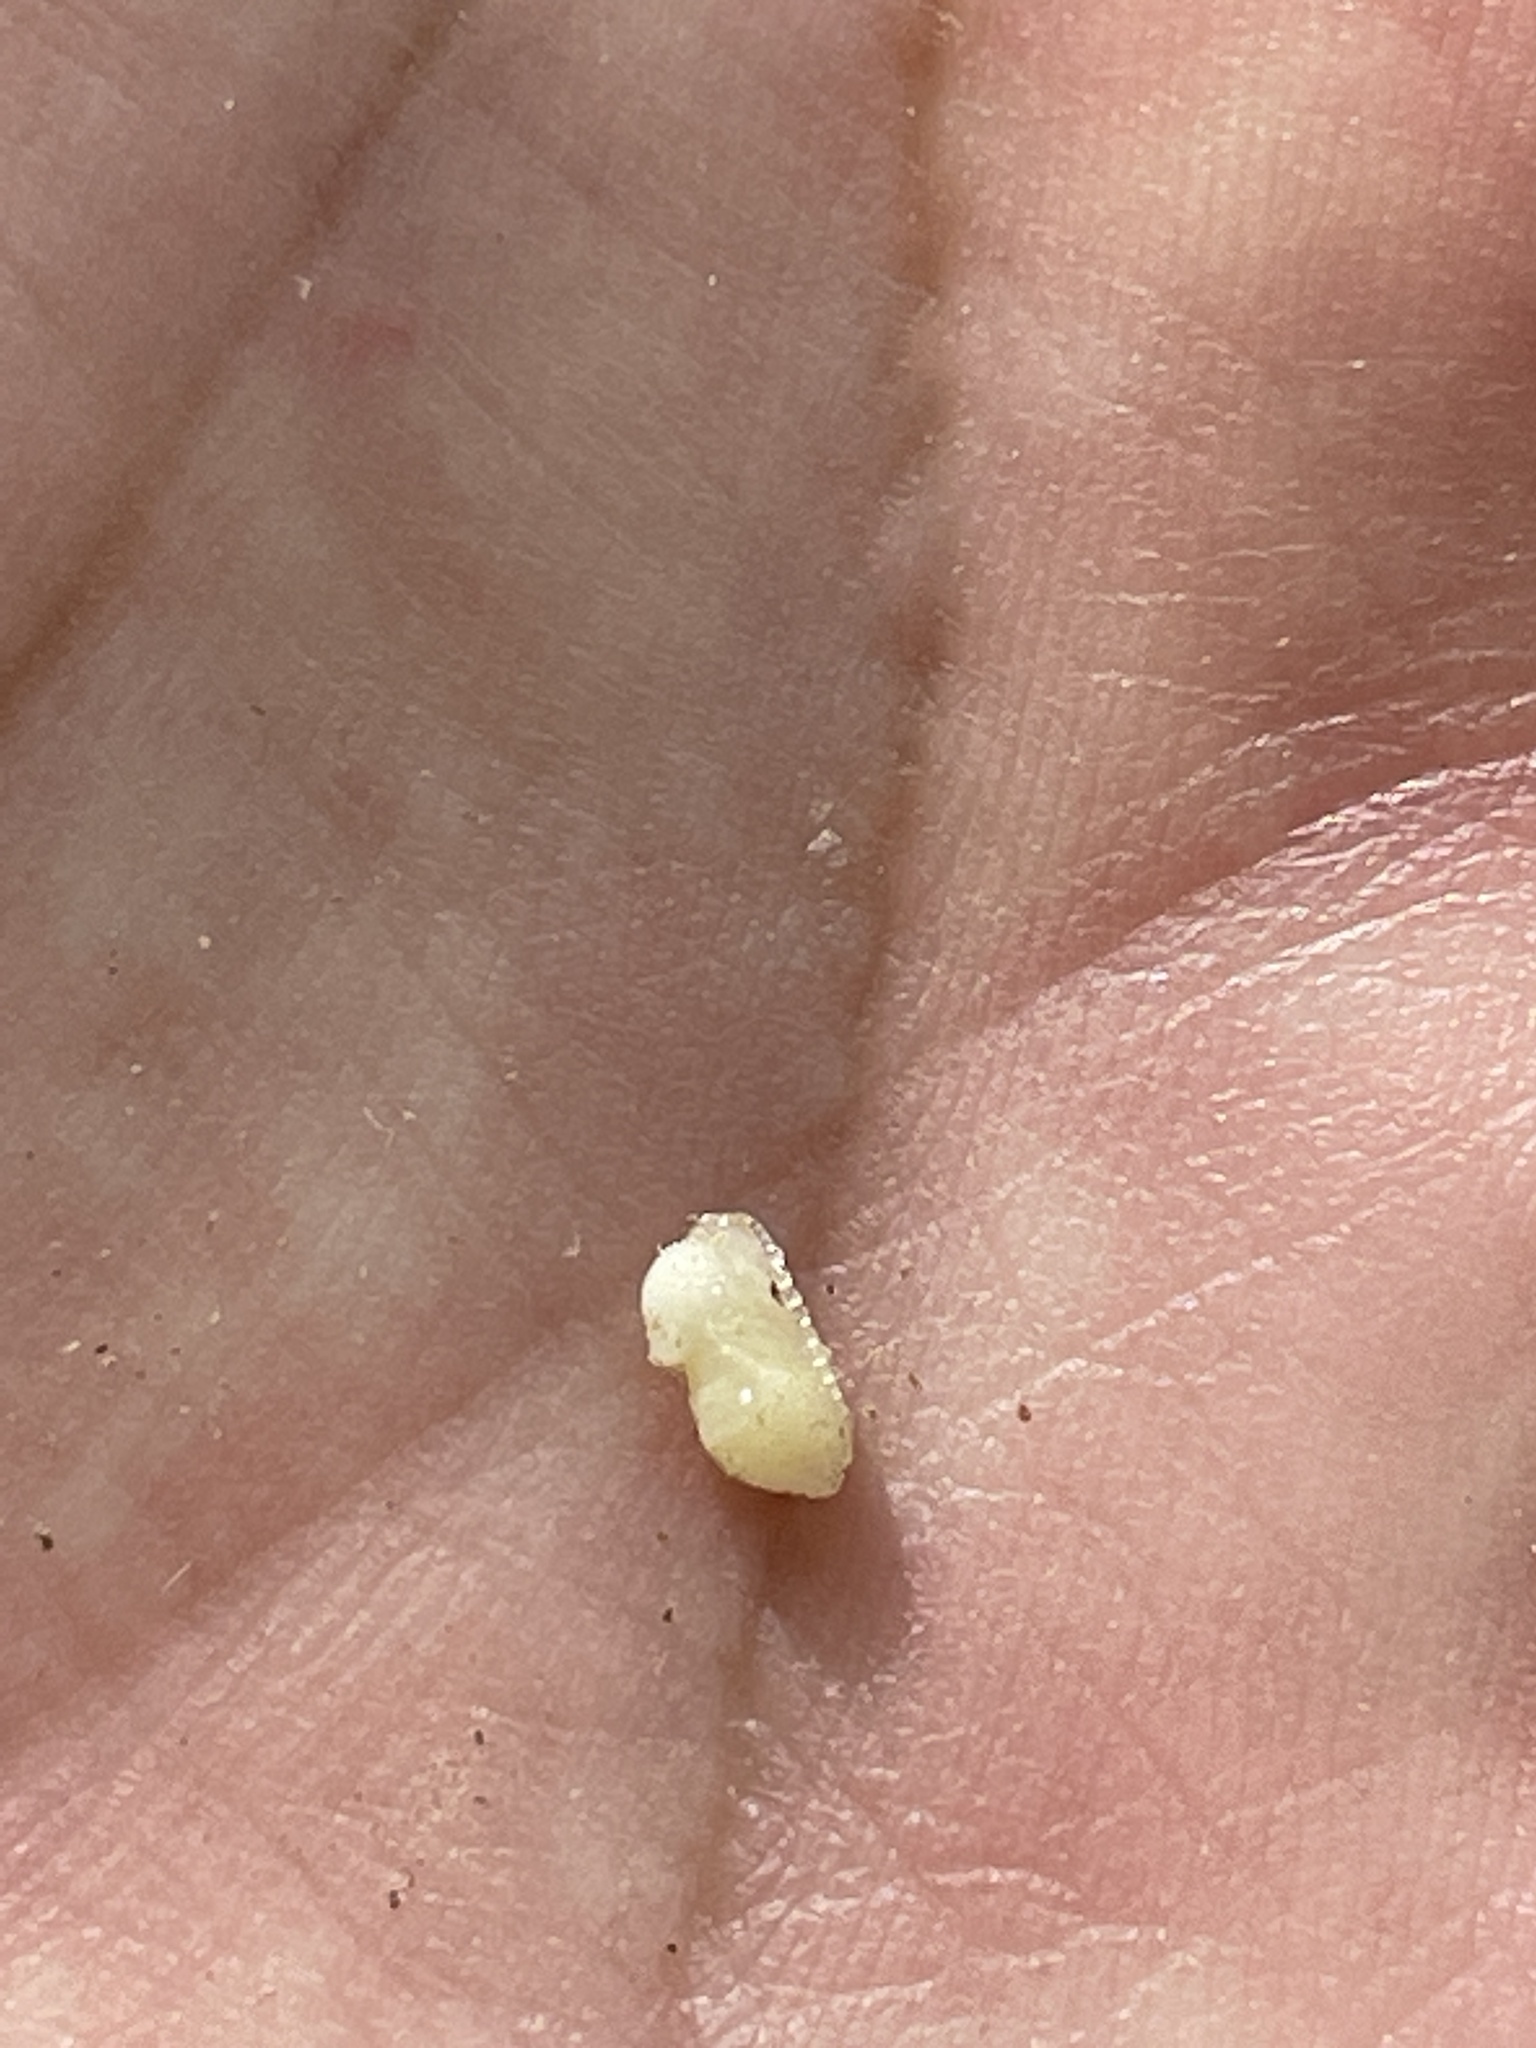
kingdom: Animalia
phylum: Arthropoda
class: Insecta
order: Hymenoptera
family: Cynipidae
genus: Amphibolips
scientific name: Amphibolips
